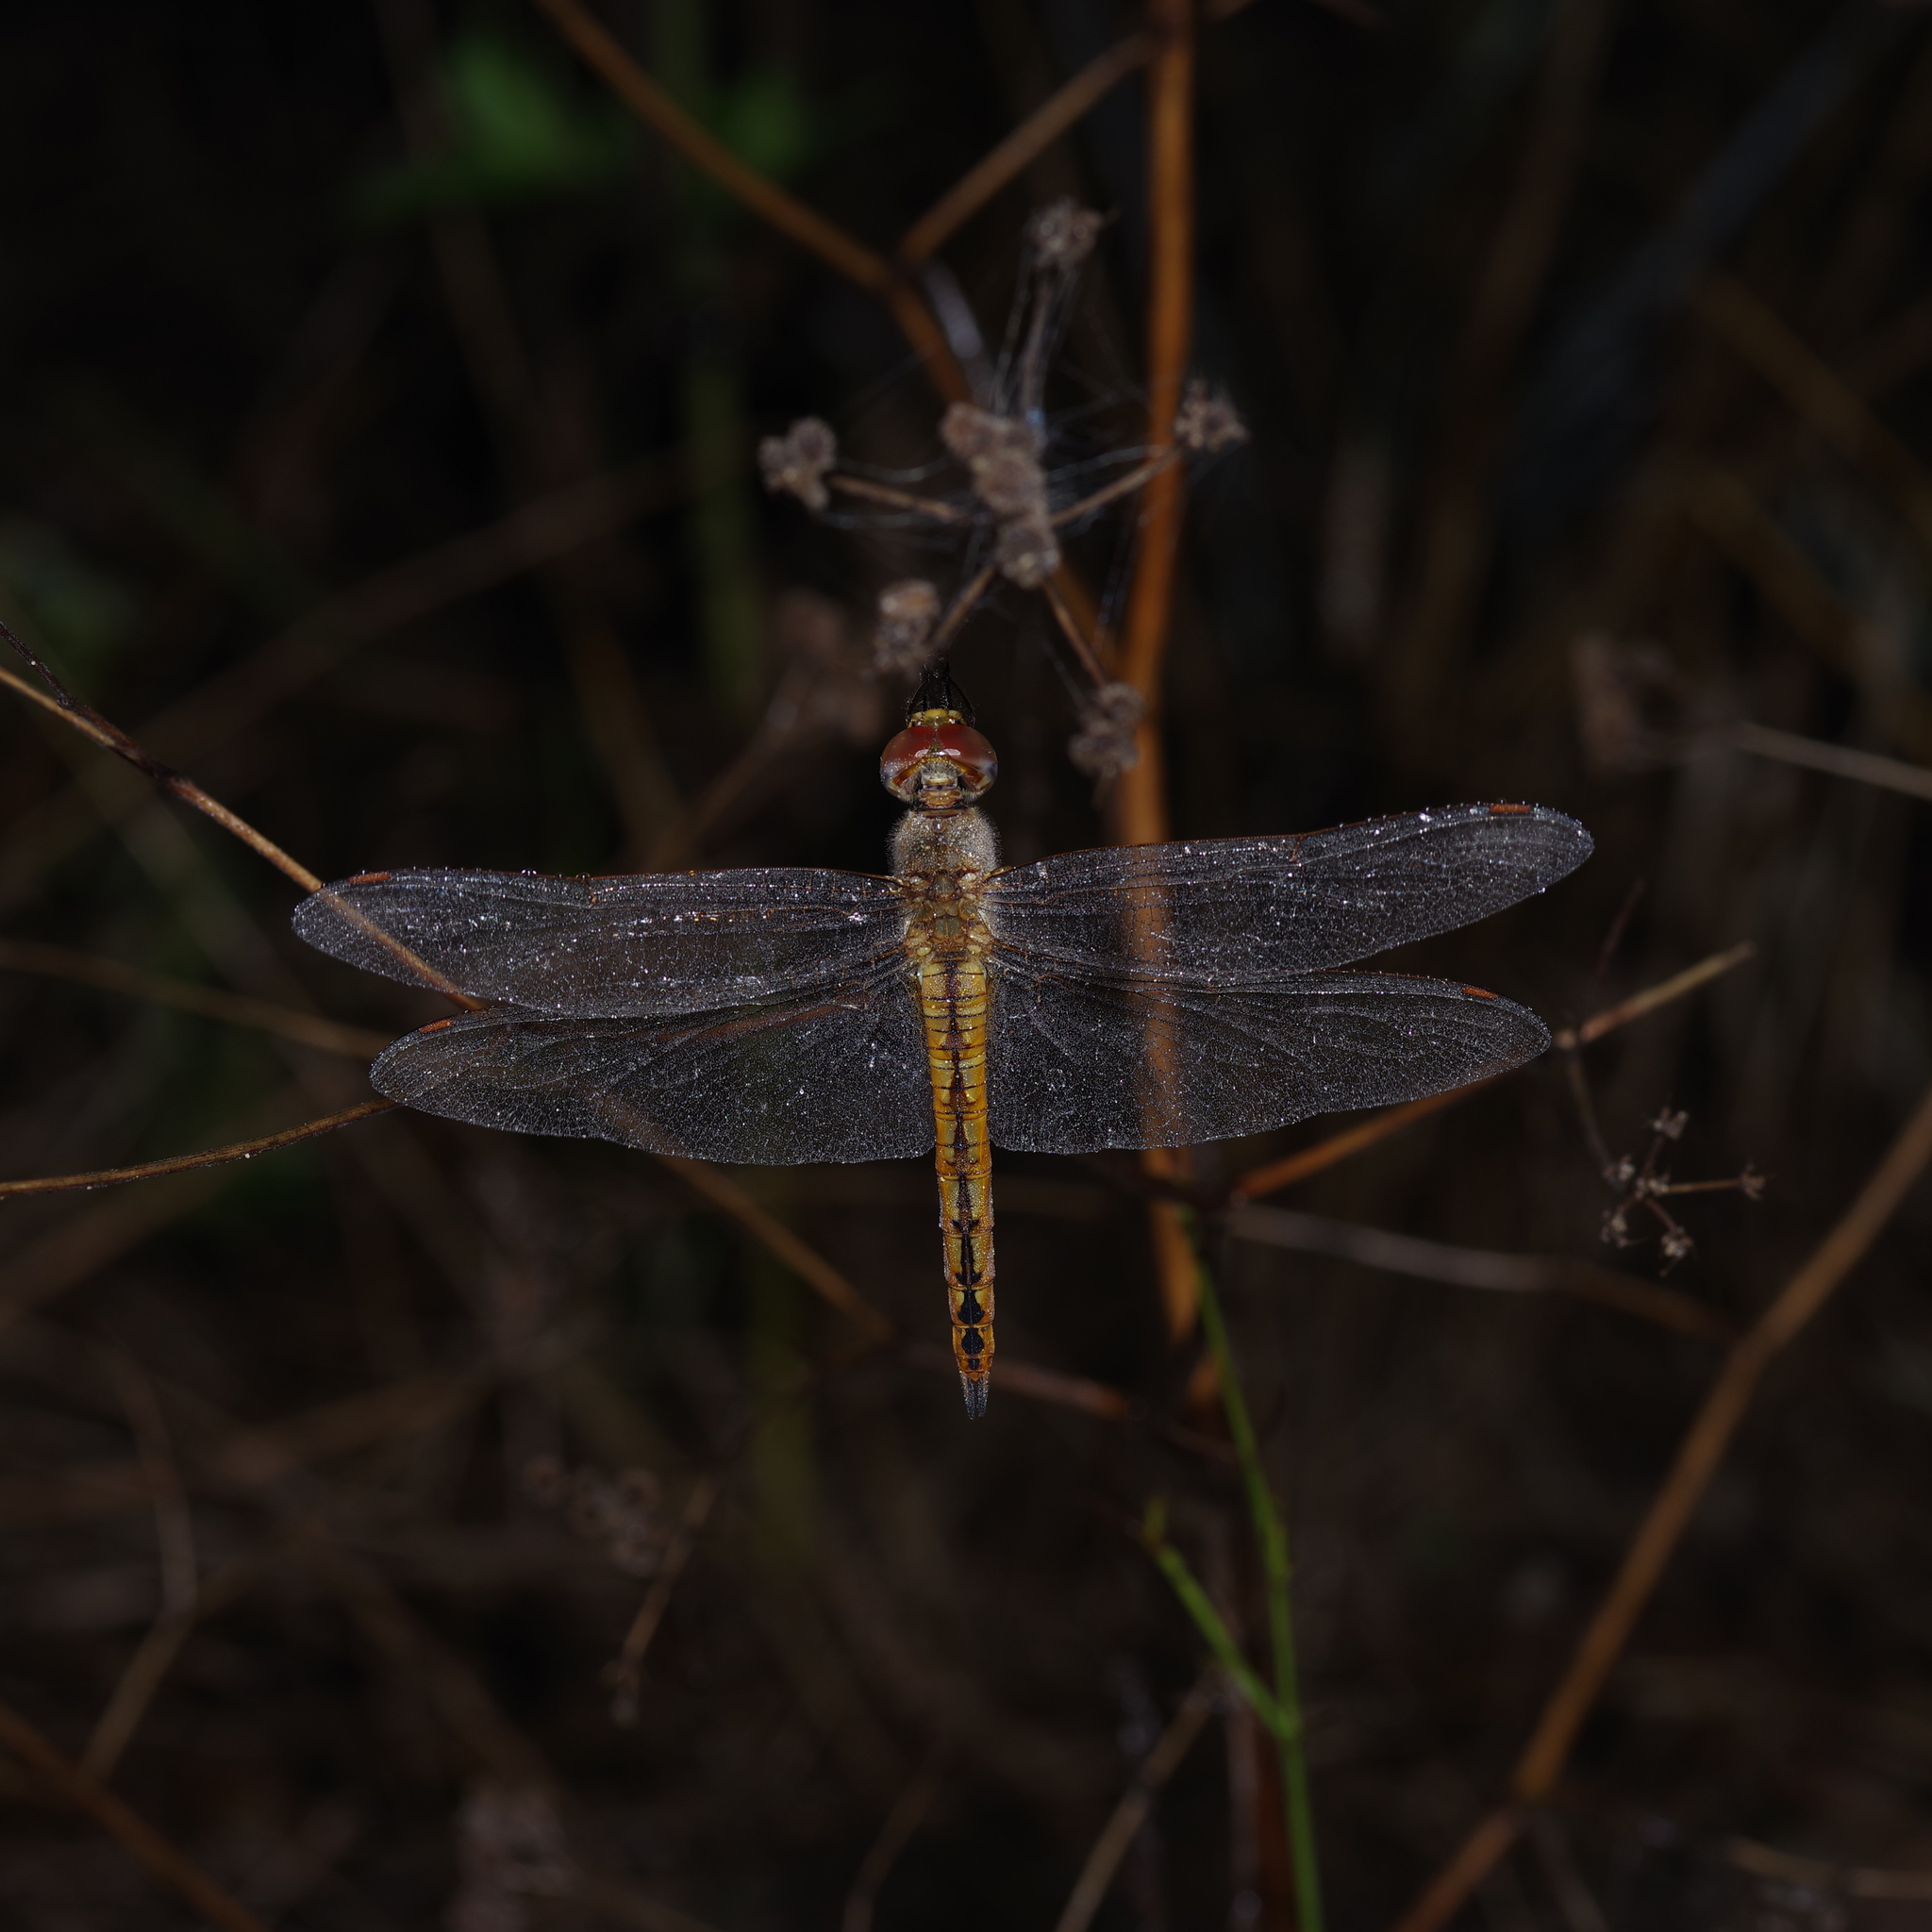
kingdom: Animalia
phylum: Arthropoda
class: Insecta
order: Odonata
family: Libellulidae
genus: Pantala
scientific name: Pantala flavescens
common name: Wandering glider
